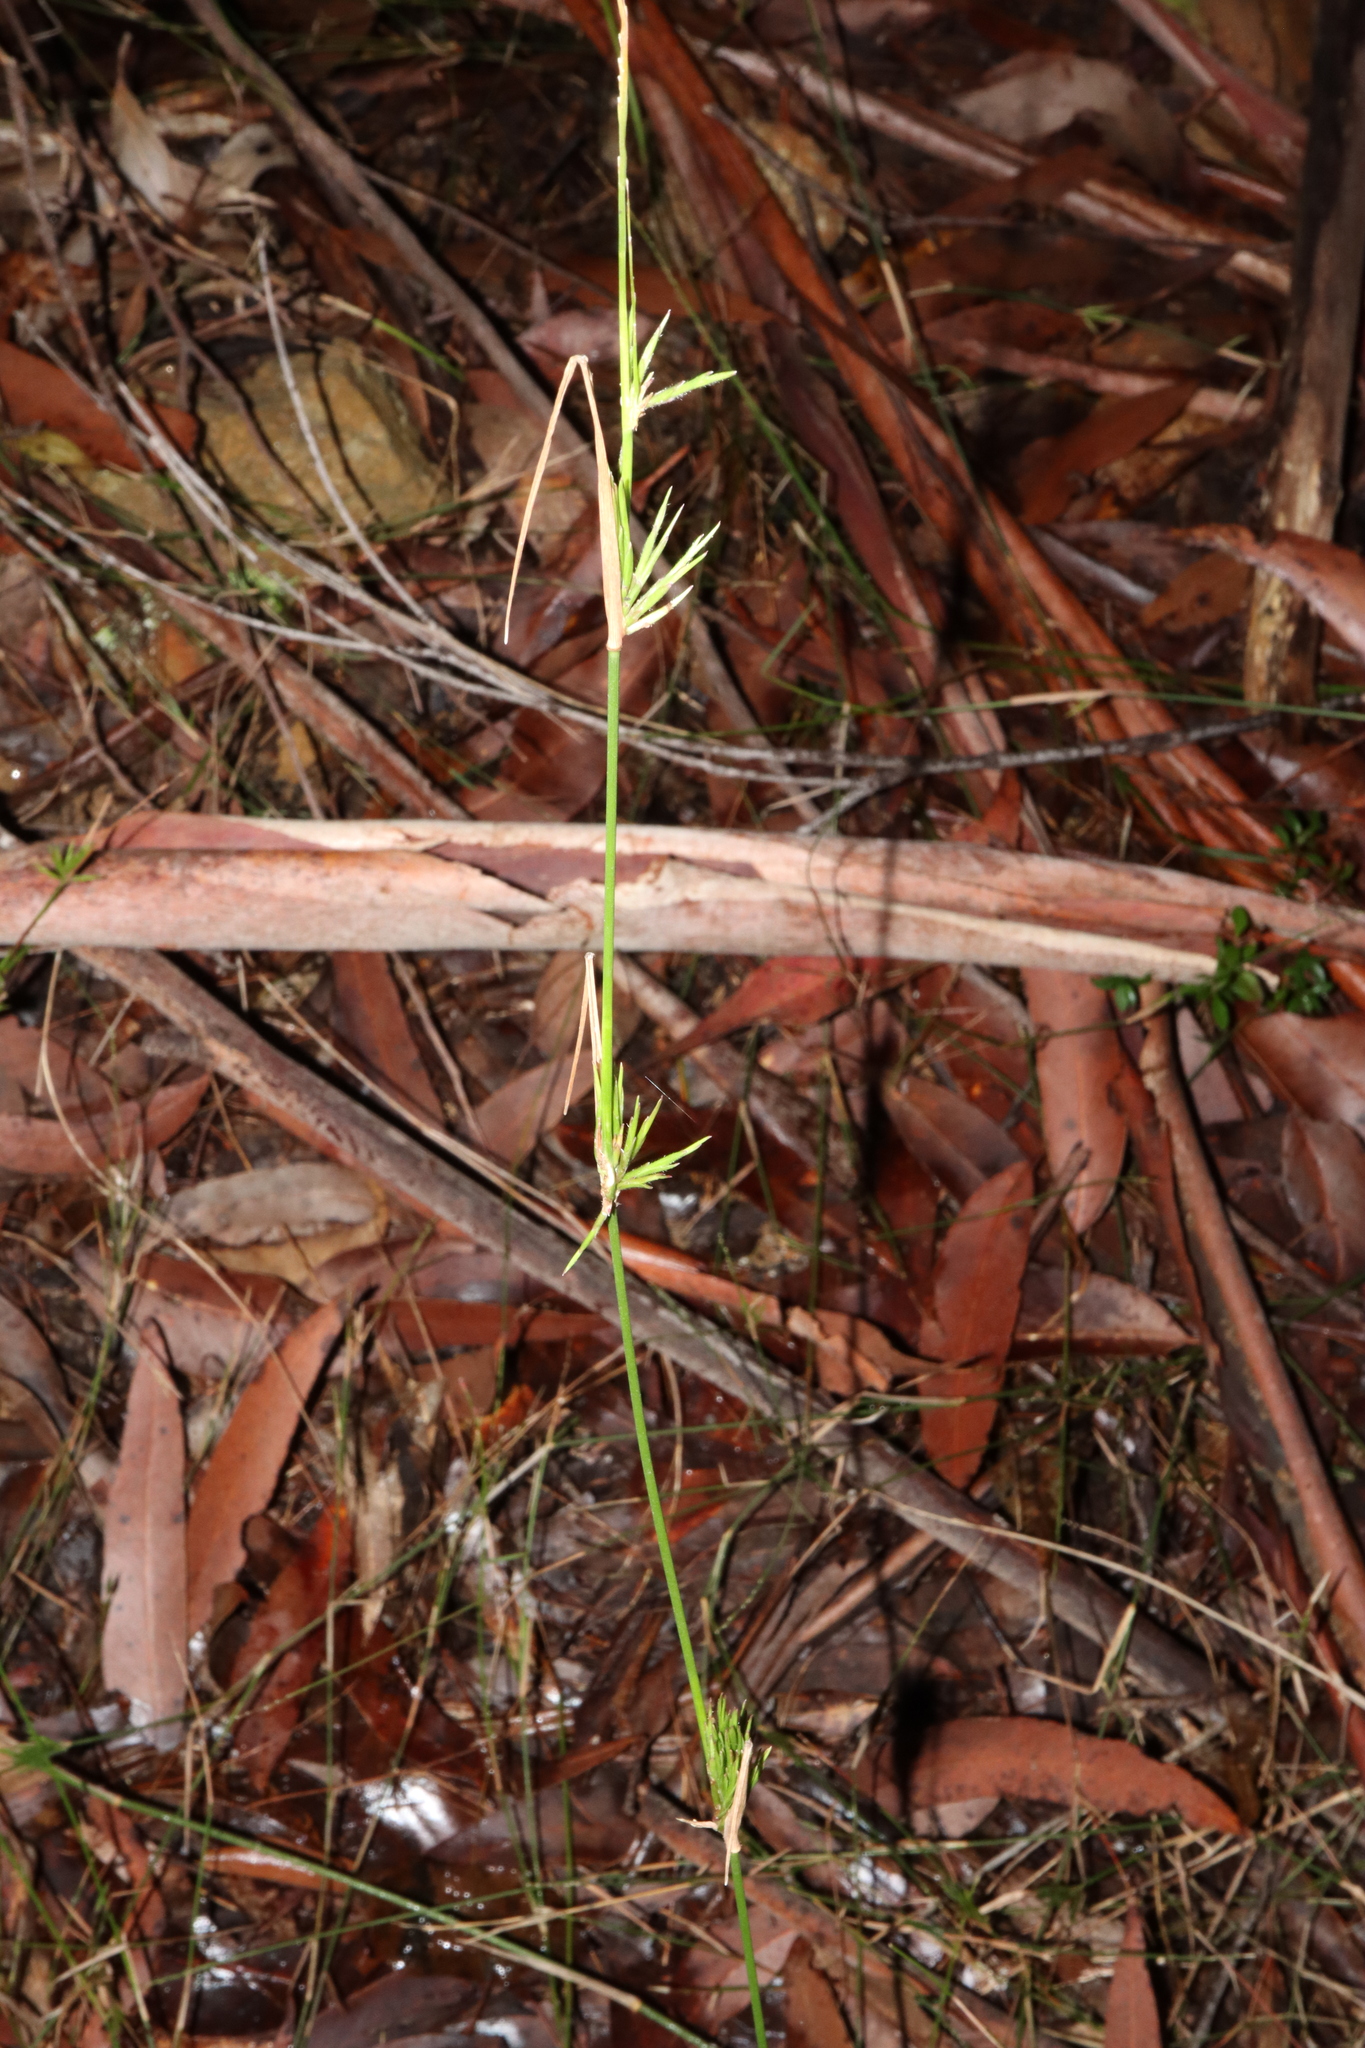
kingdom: Plantae
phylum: Tracheophyta
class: Liliopsida
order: Poales
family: Poaceae
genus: Entolasia
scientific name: Entolasia stricta
